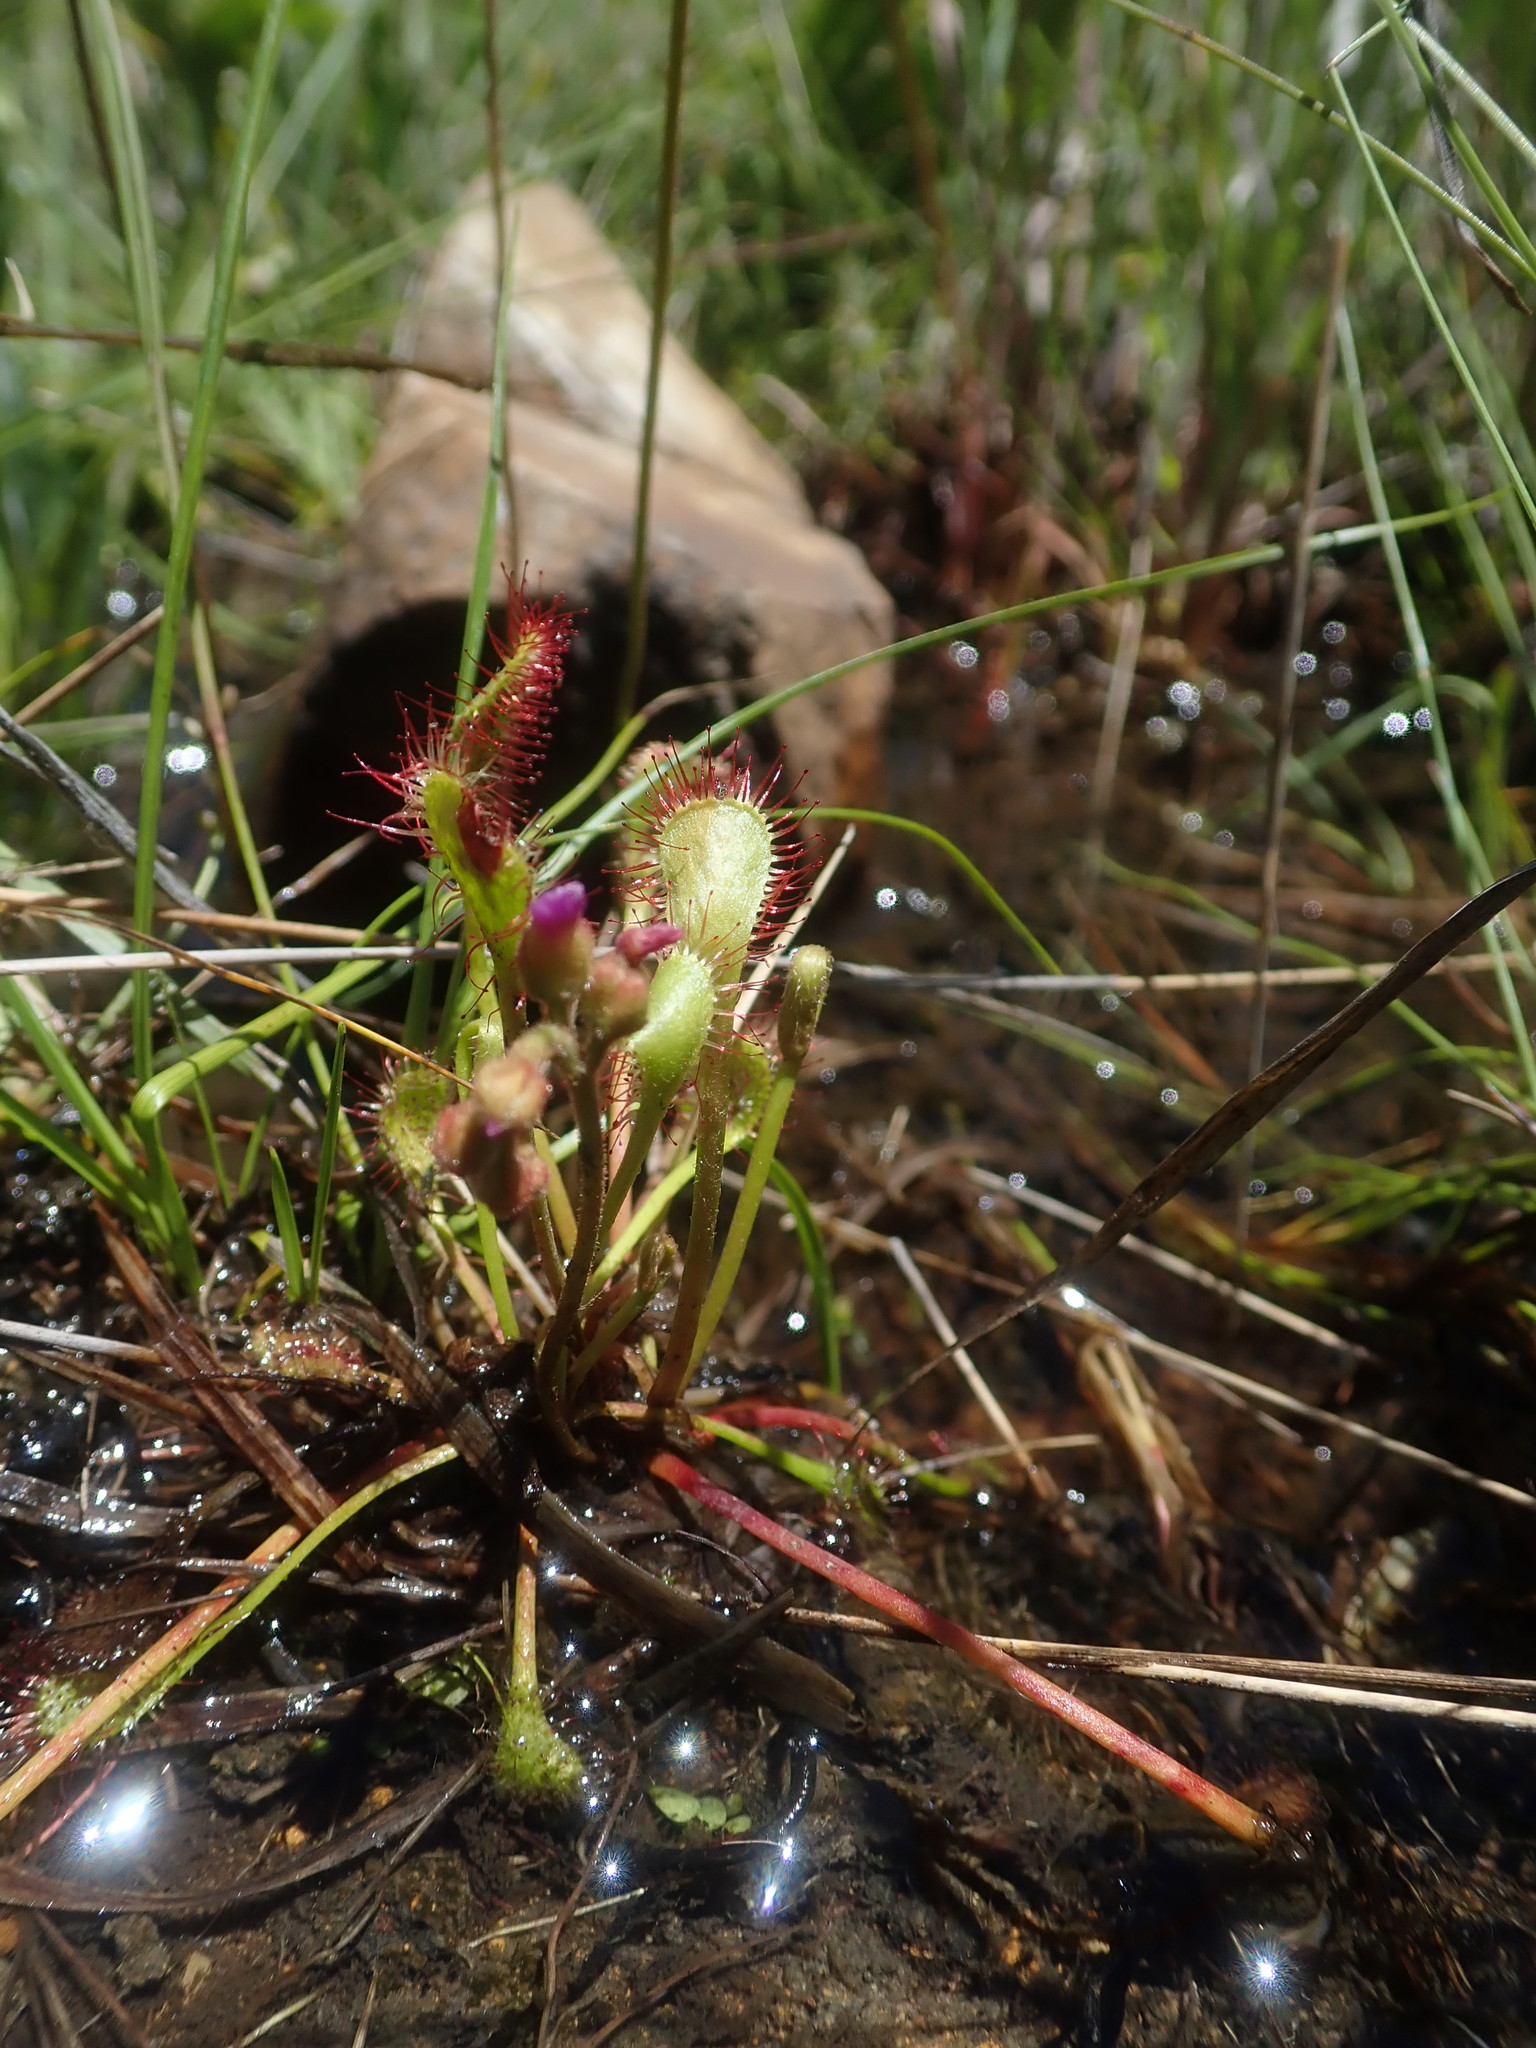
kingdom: Plantae
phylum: Tracheophyta
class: Magnoliopsida
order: Caryophyllales
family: Droseraceae
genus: Drosera
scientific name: Drosera collinsiae
